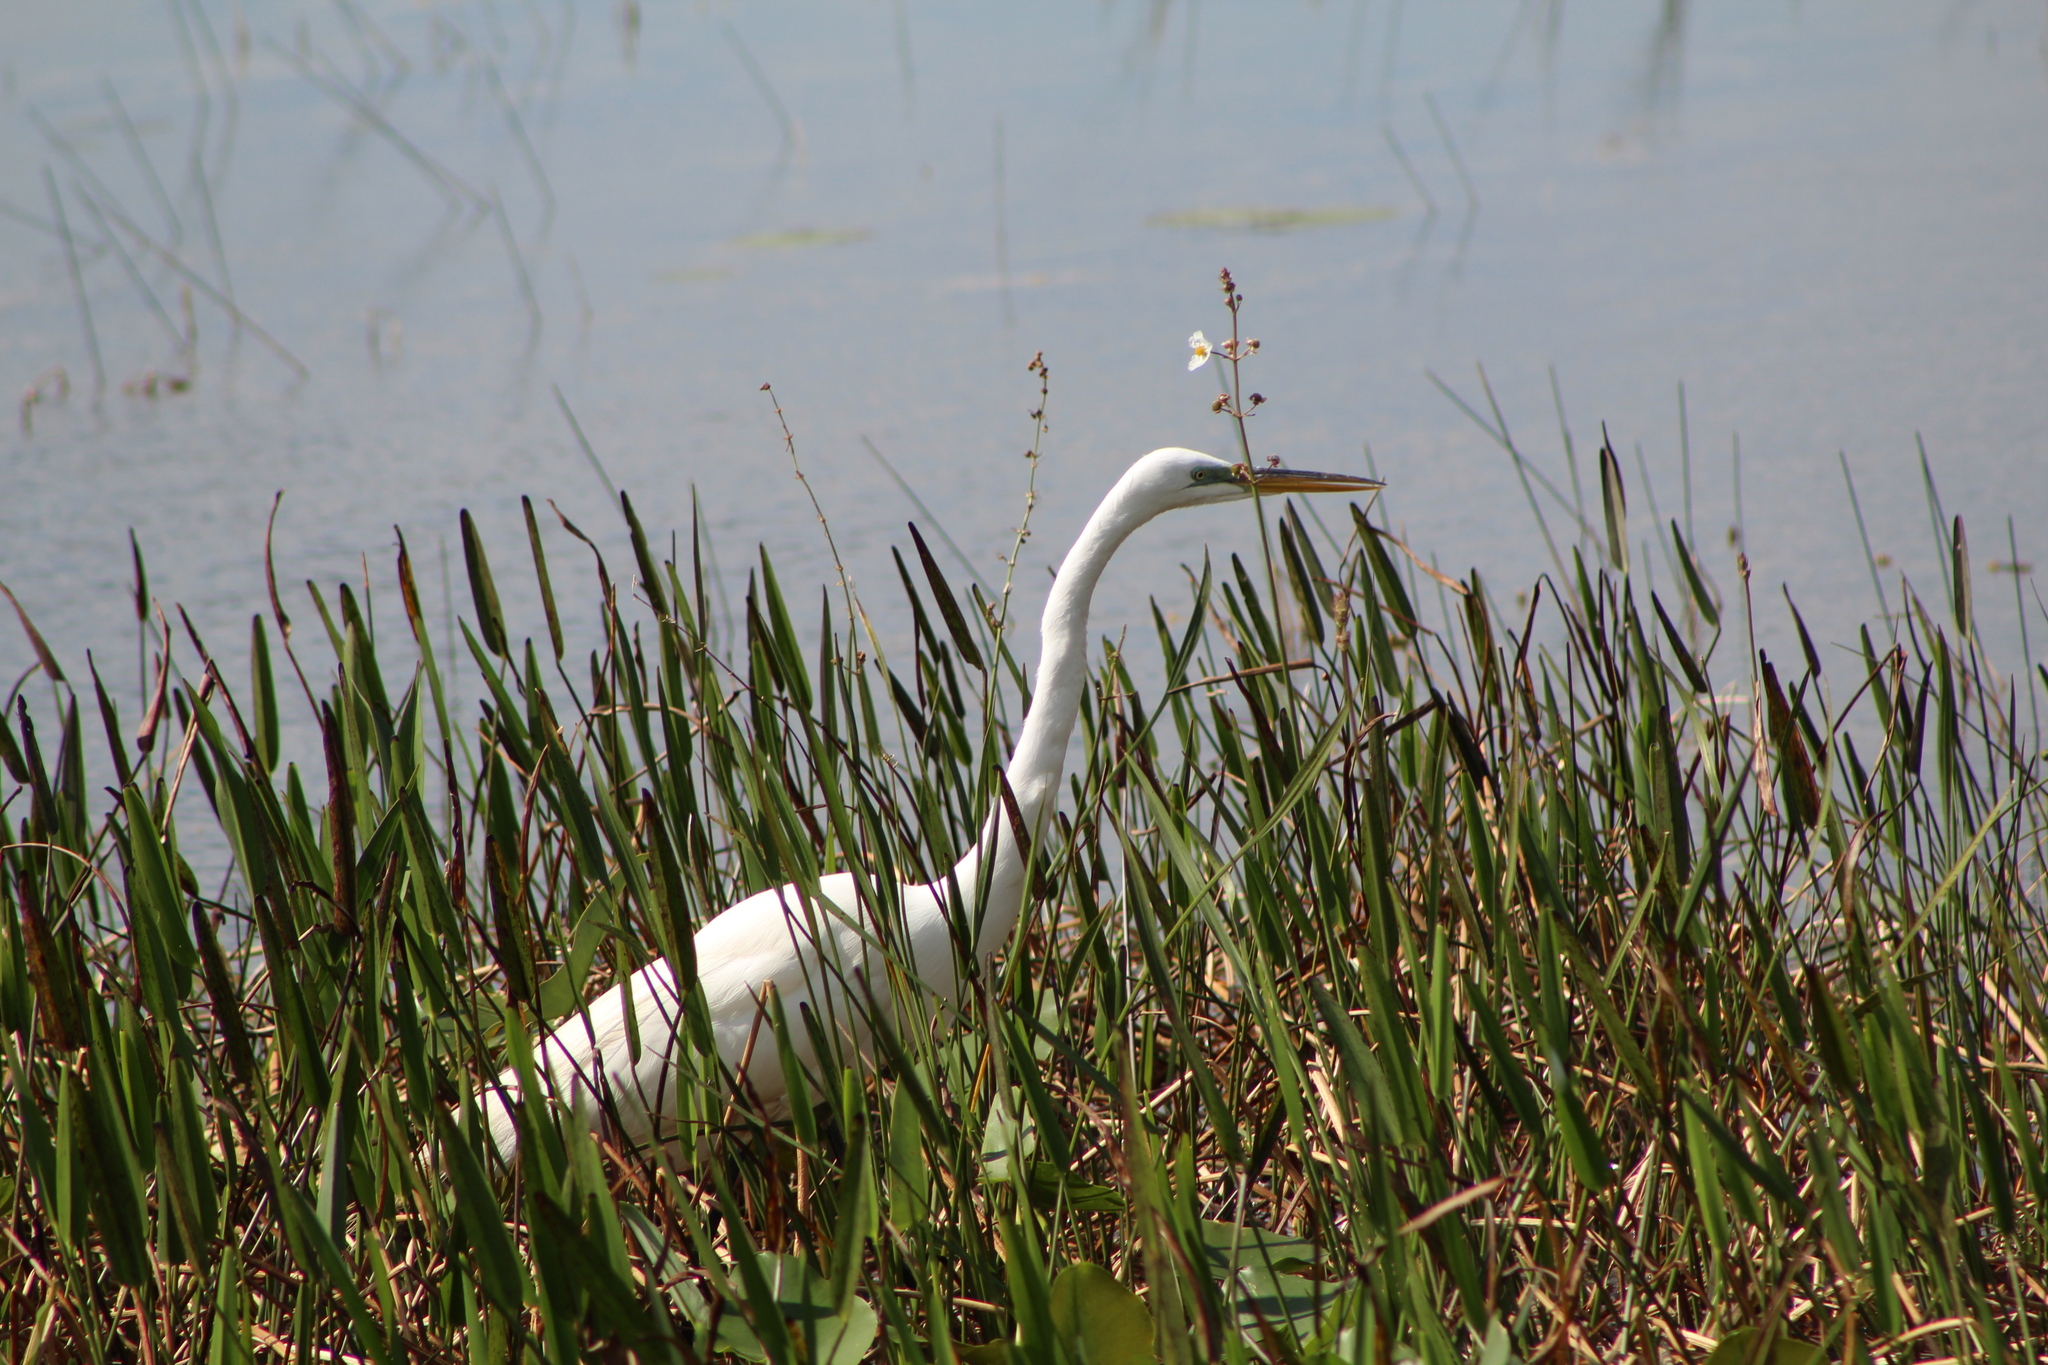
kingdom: Animalia
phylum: Chordata
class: Aves
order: Pelecaniformes
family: Ardeidae
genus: Ardea
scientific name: Ardea alba
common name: Great egret
